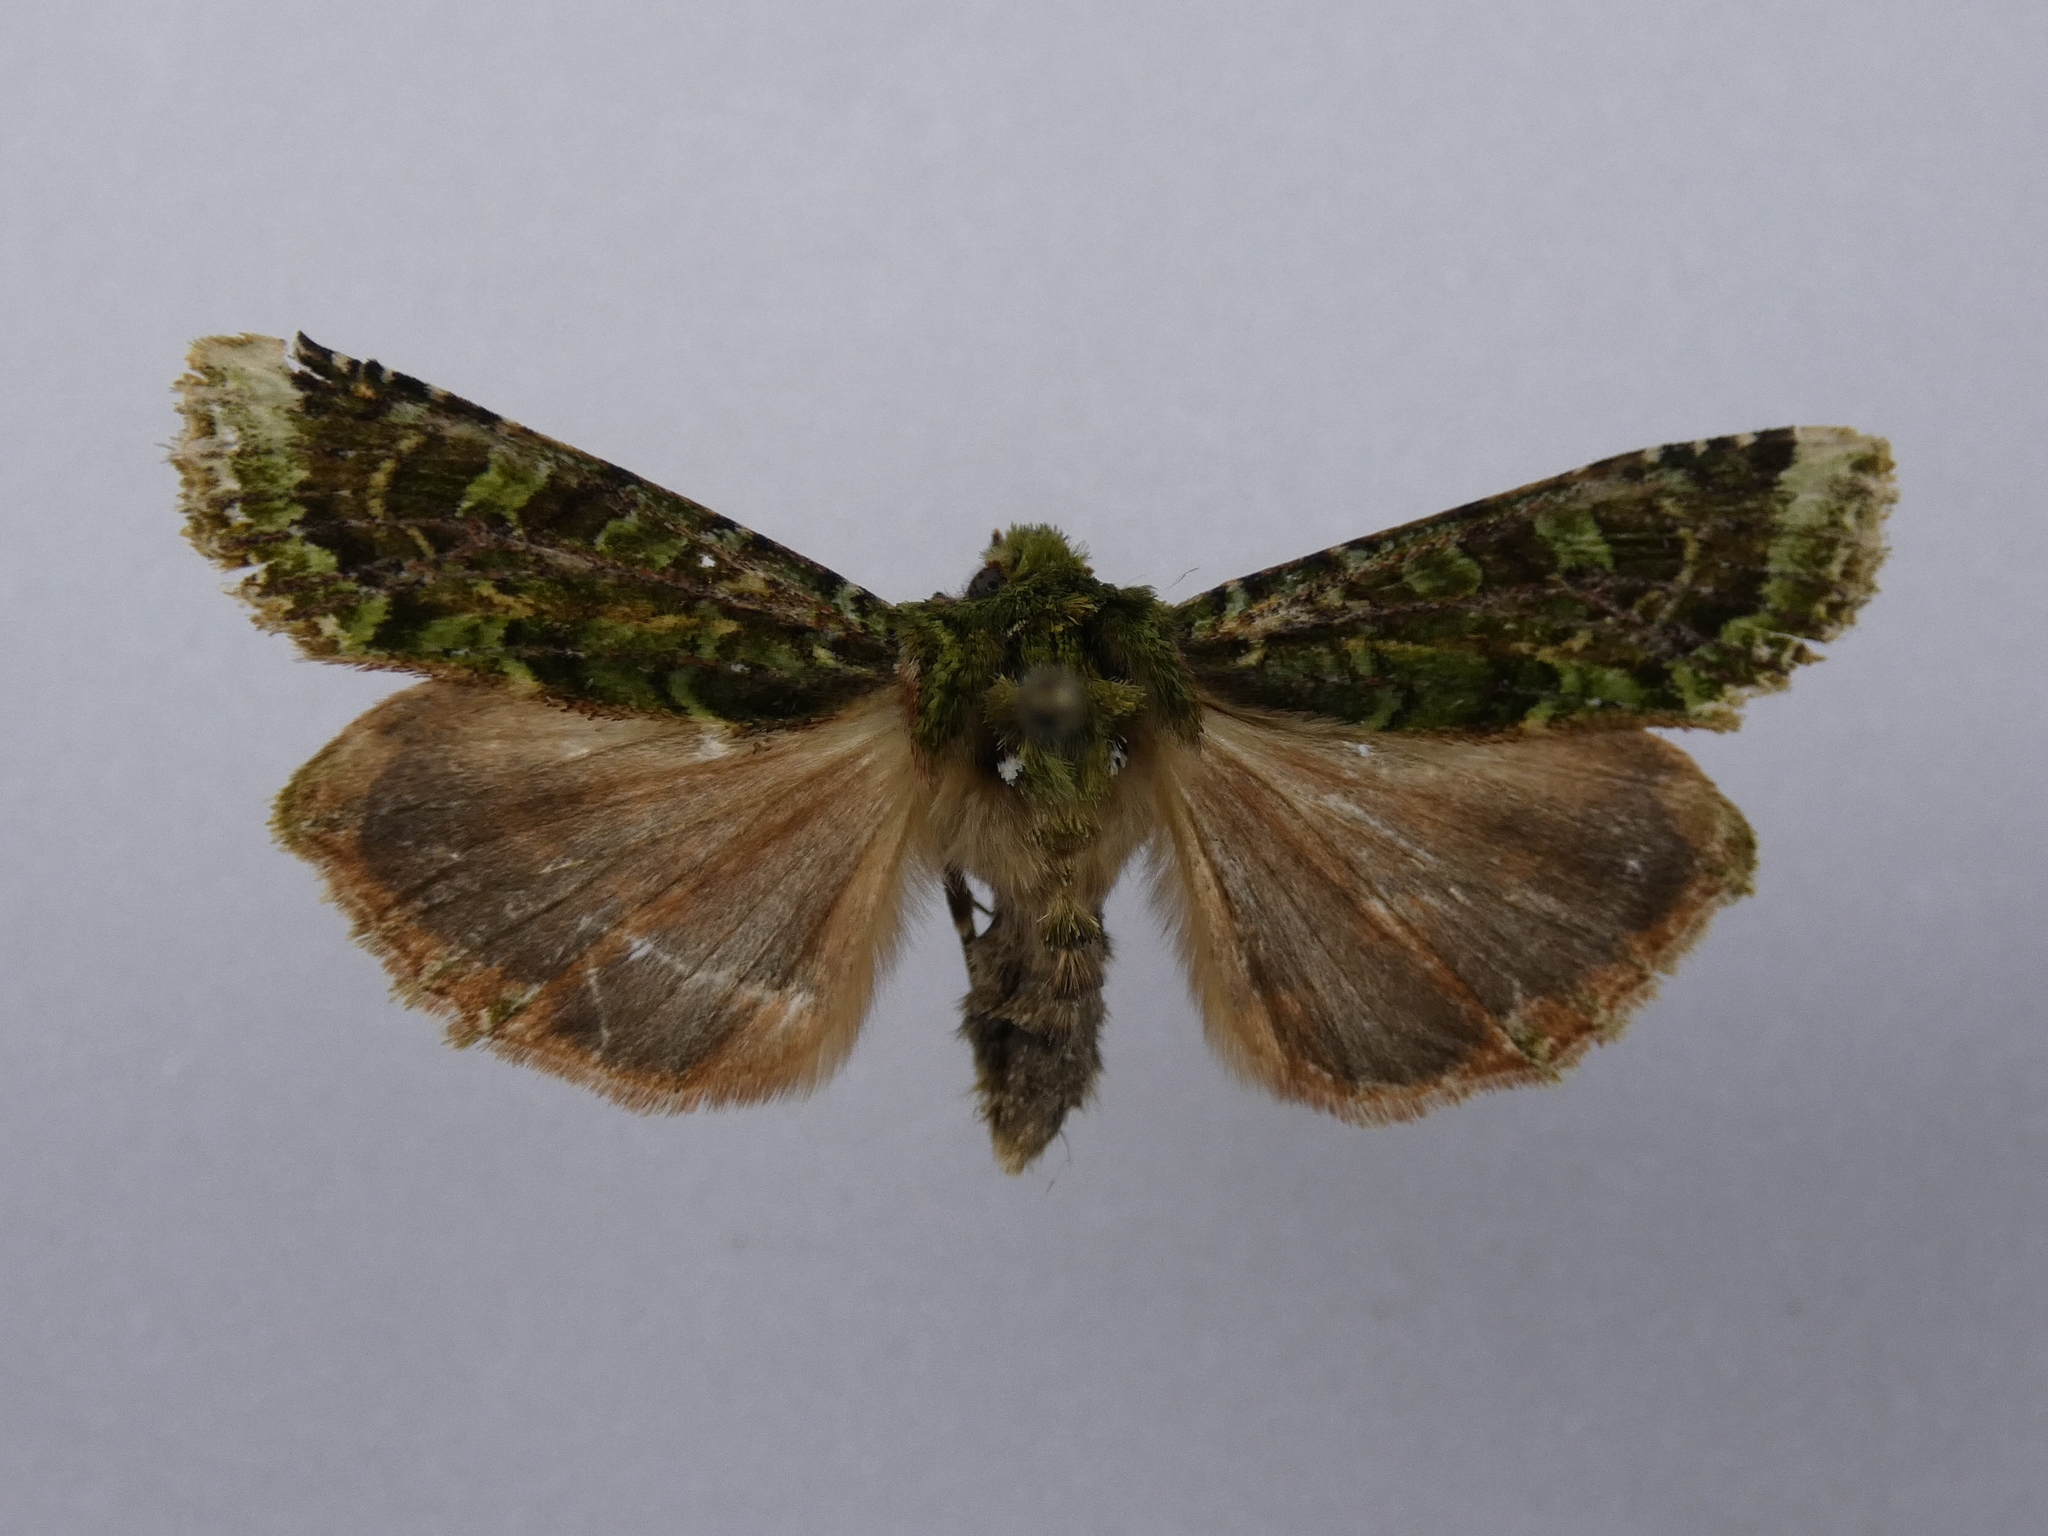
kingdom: Animalia
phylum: Arthropoda
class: Insecta
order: Lepidoptera
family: Noctuidae
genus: Feredayia
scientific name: Feredayia grammosa
